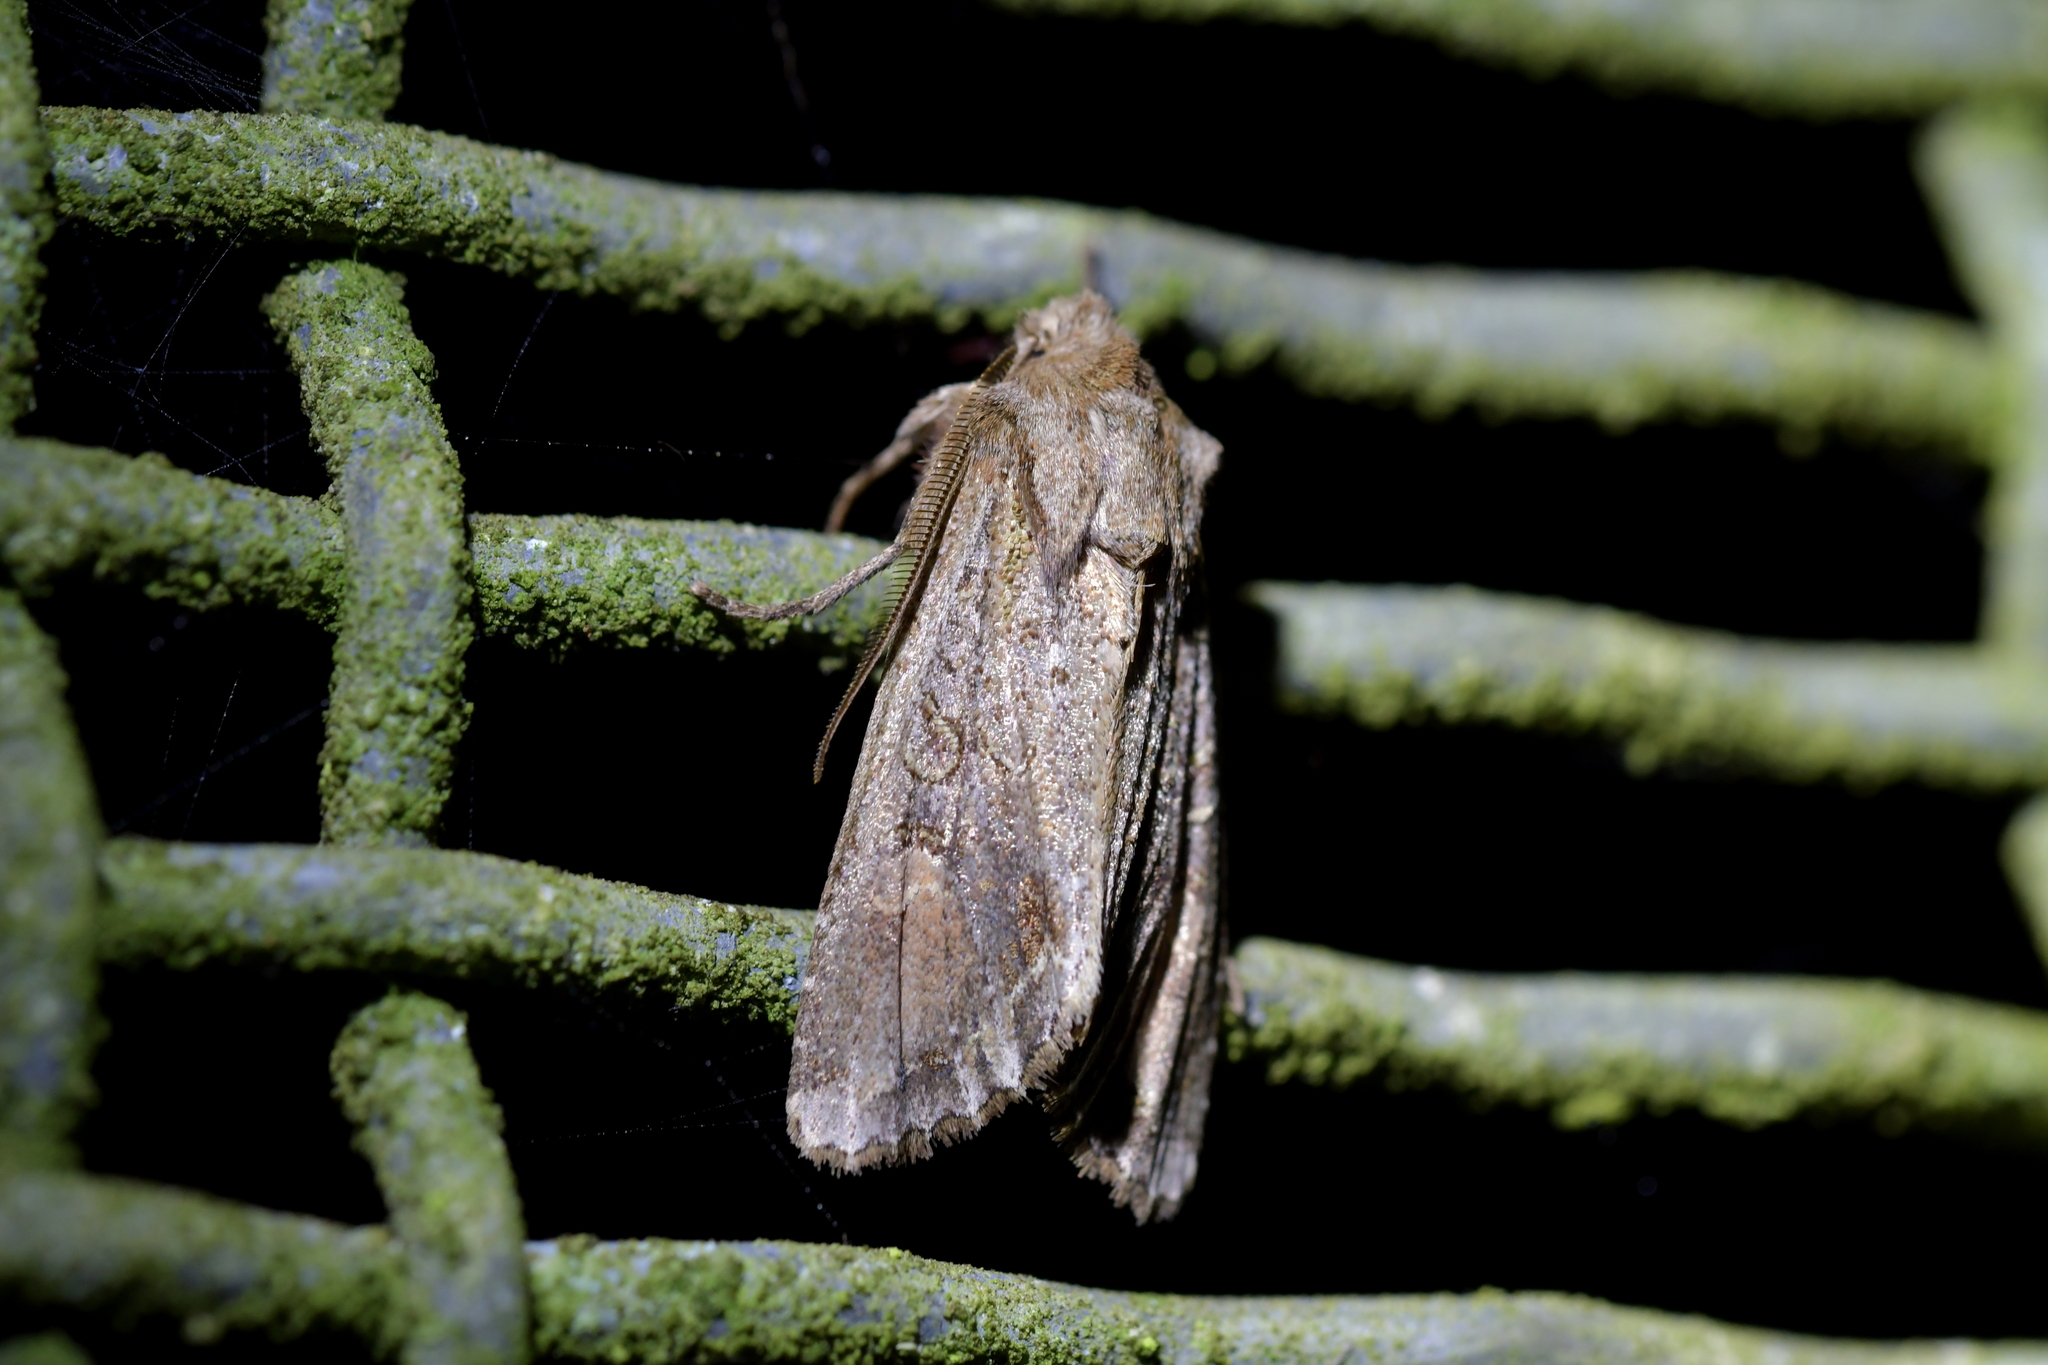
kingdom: Animalia
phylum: Arthropoda
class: Insecta
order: Lepidoptera
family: Noctuidae
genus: Ichneutica
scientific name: Ichneutica
